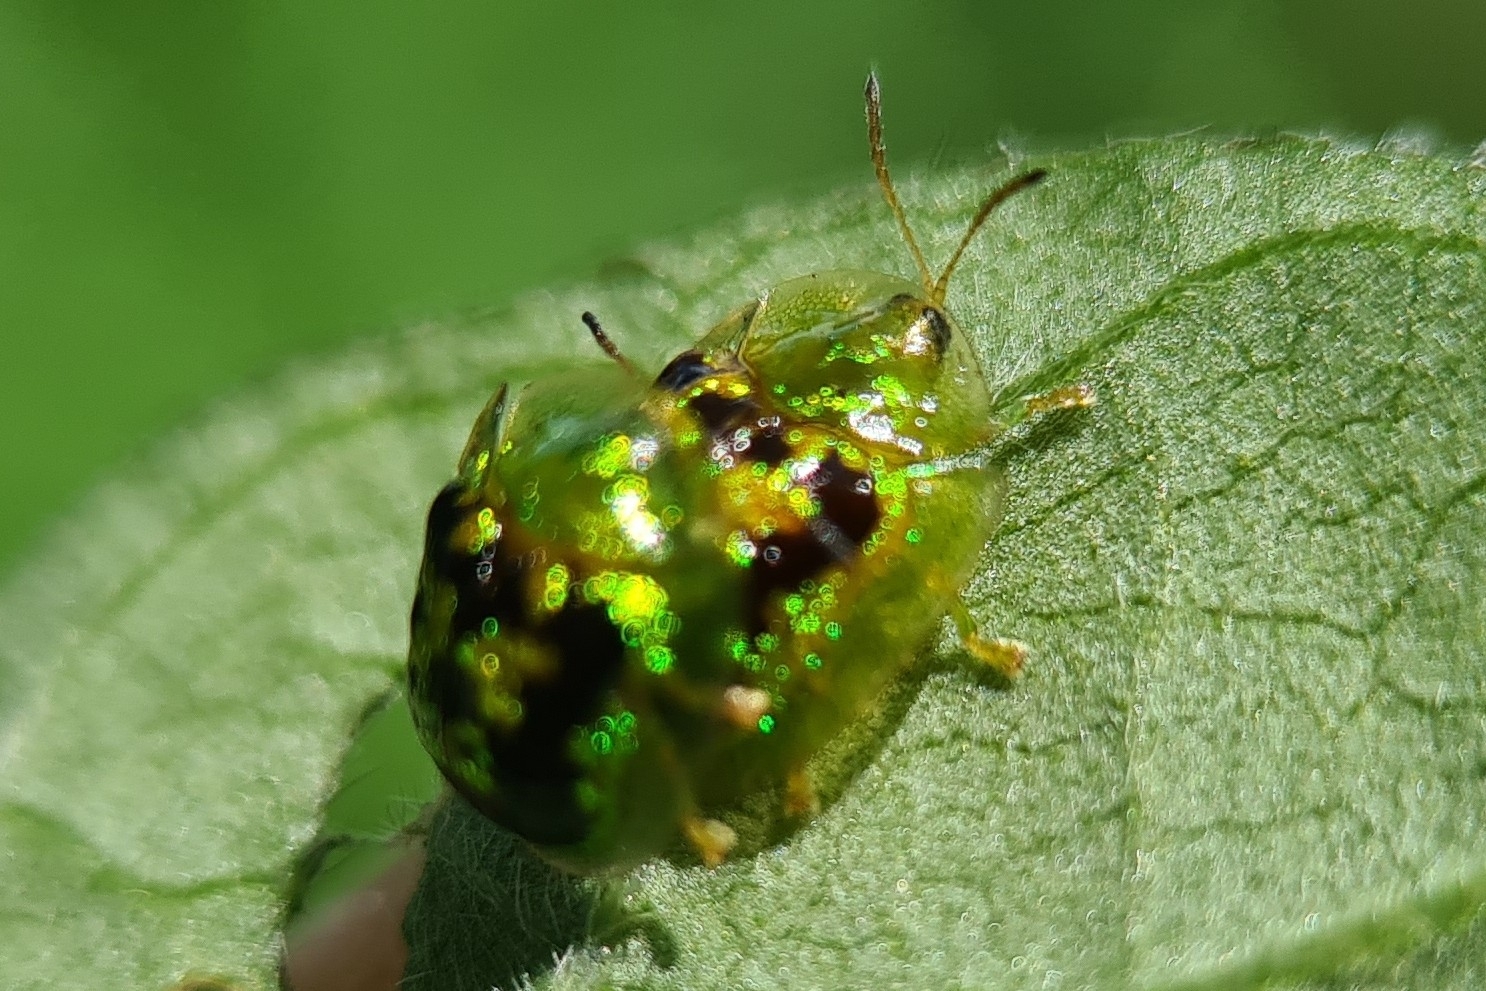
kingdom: Animalia
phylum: Arthropoda
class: Insecta
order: Coleoptera
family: Chrysomelidae
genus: Cassida
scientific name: Cassida diomma
